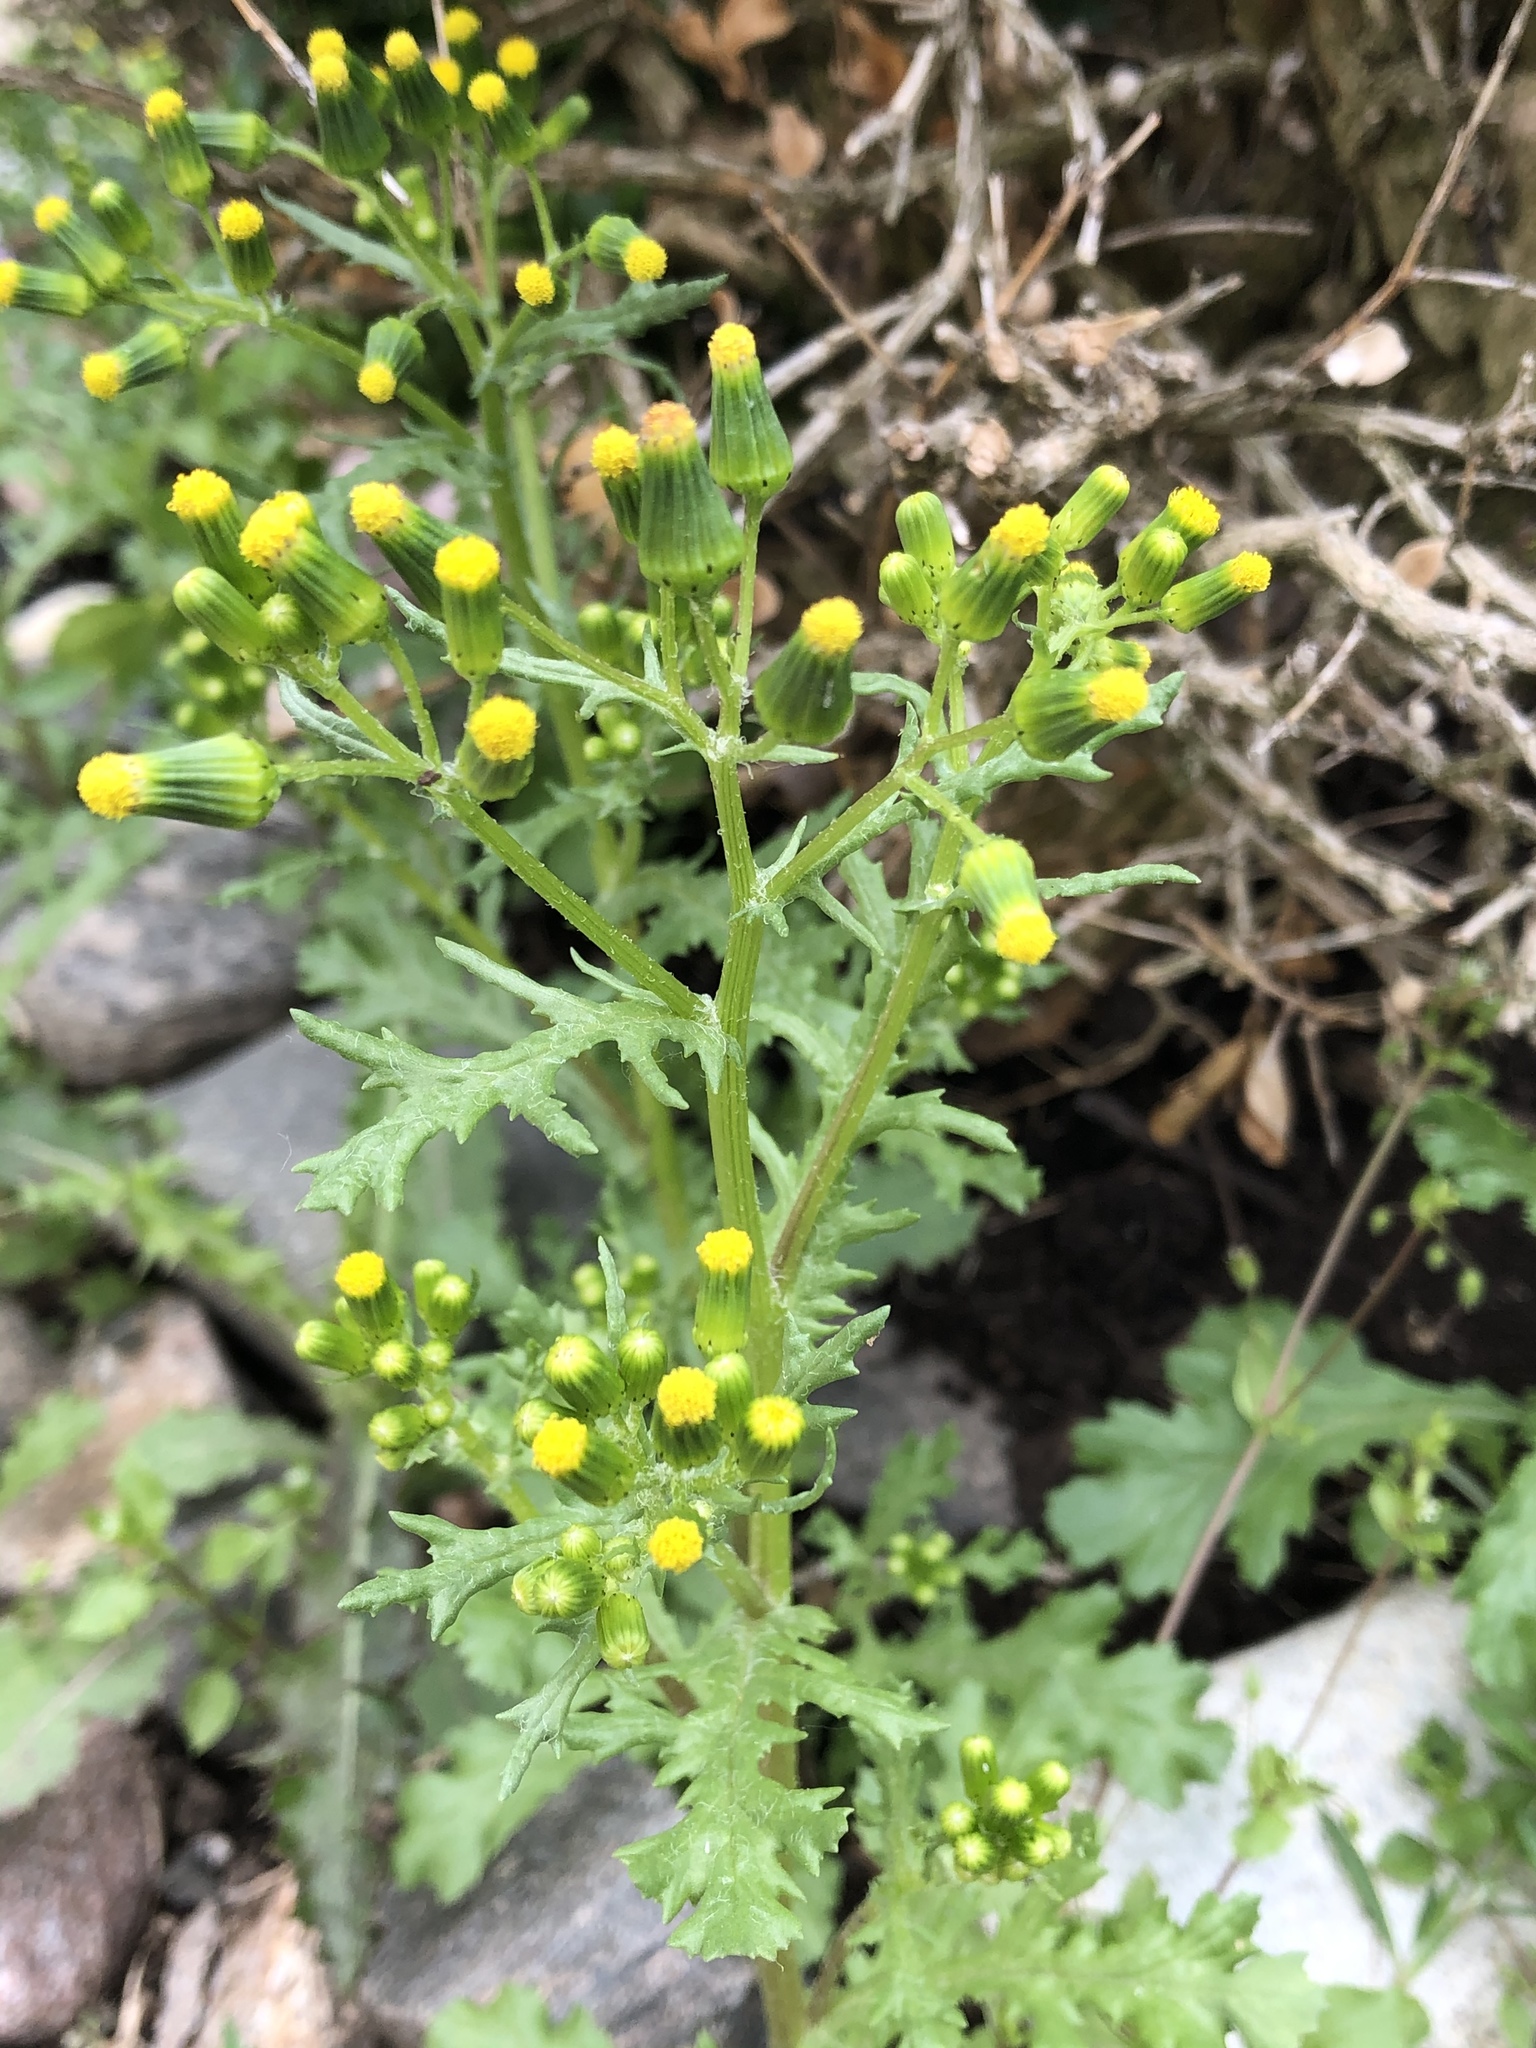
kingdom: Plantae
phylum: Tracheophyta
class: Magnoliopsida
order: Asterales
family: Asteraceae
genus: Senecio
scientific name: Senecio vulgaris
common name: Old-man-in-the-spring
